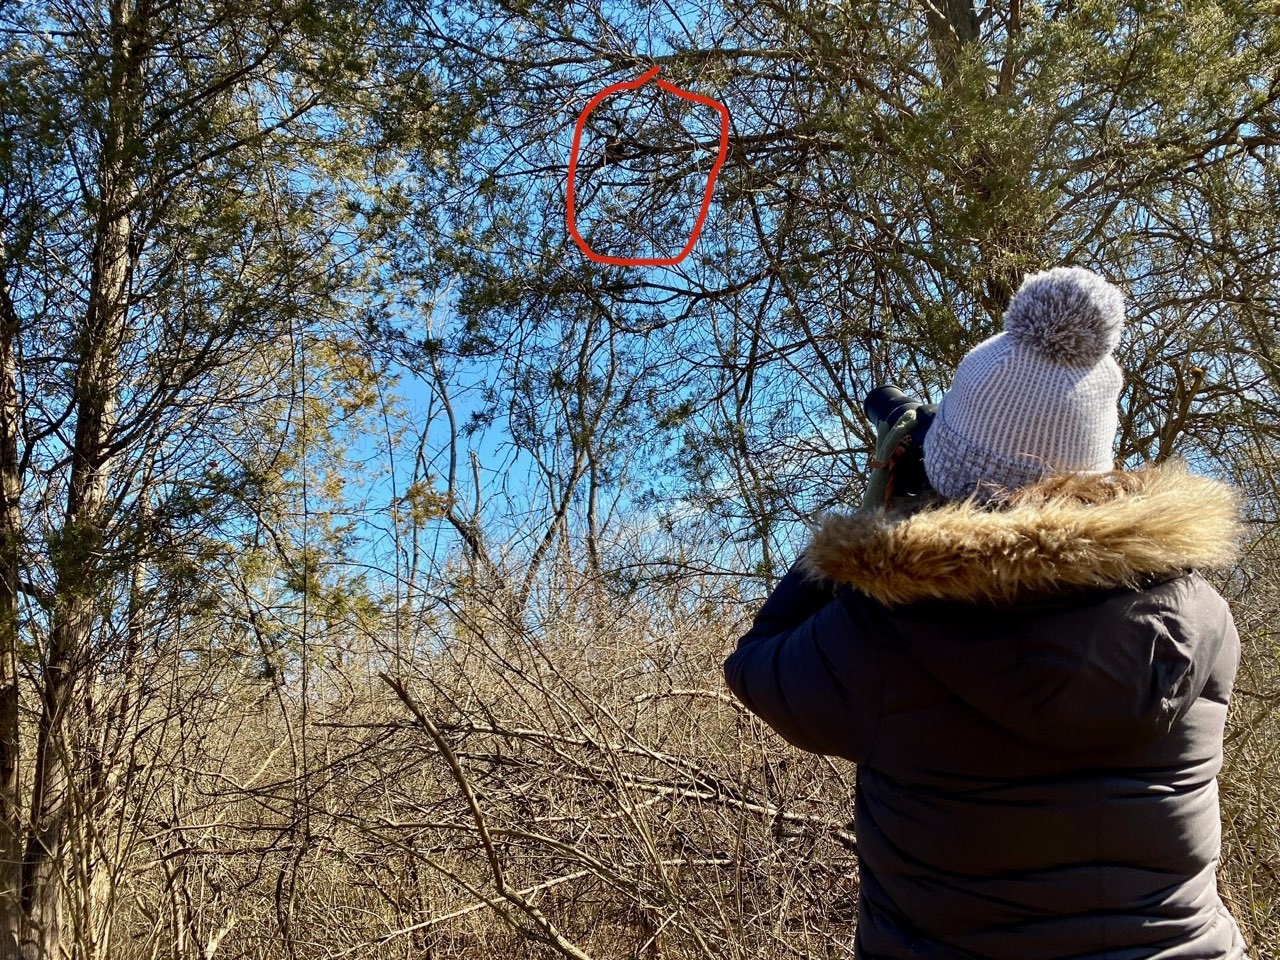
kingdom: Animalia
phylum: Chordata
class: Aves
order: Strigiformes
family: Strigidae
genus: Aegolius
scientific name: Aegolius acadicus
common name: Northern saw-whet owl
